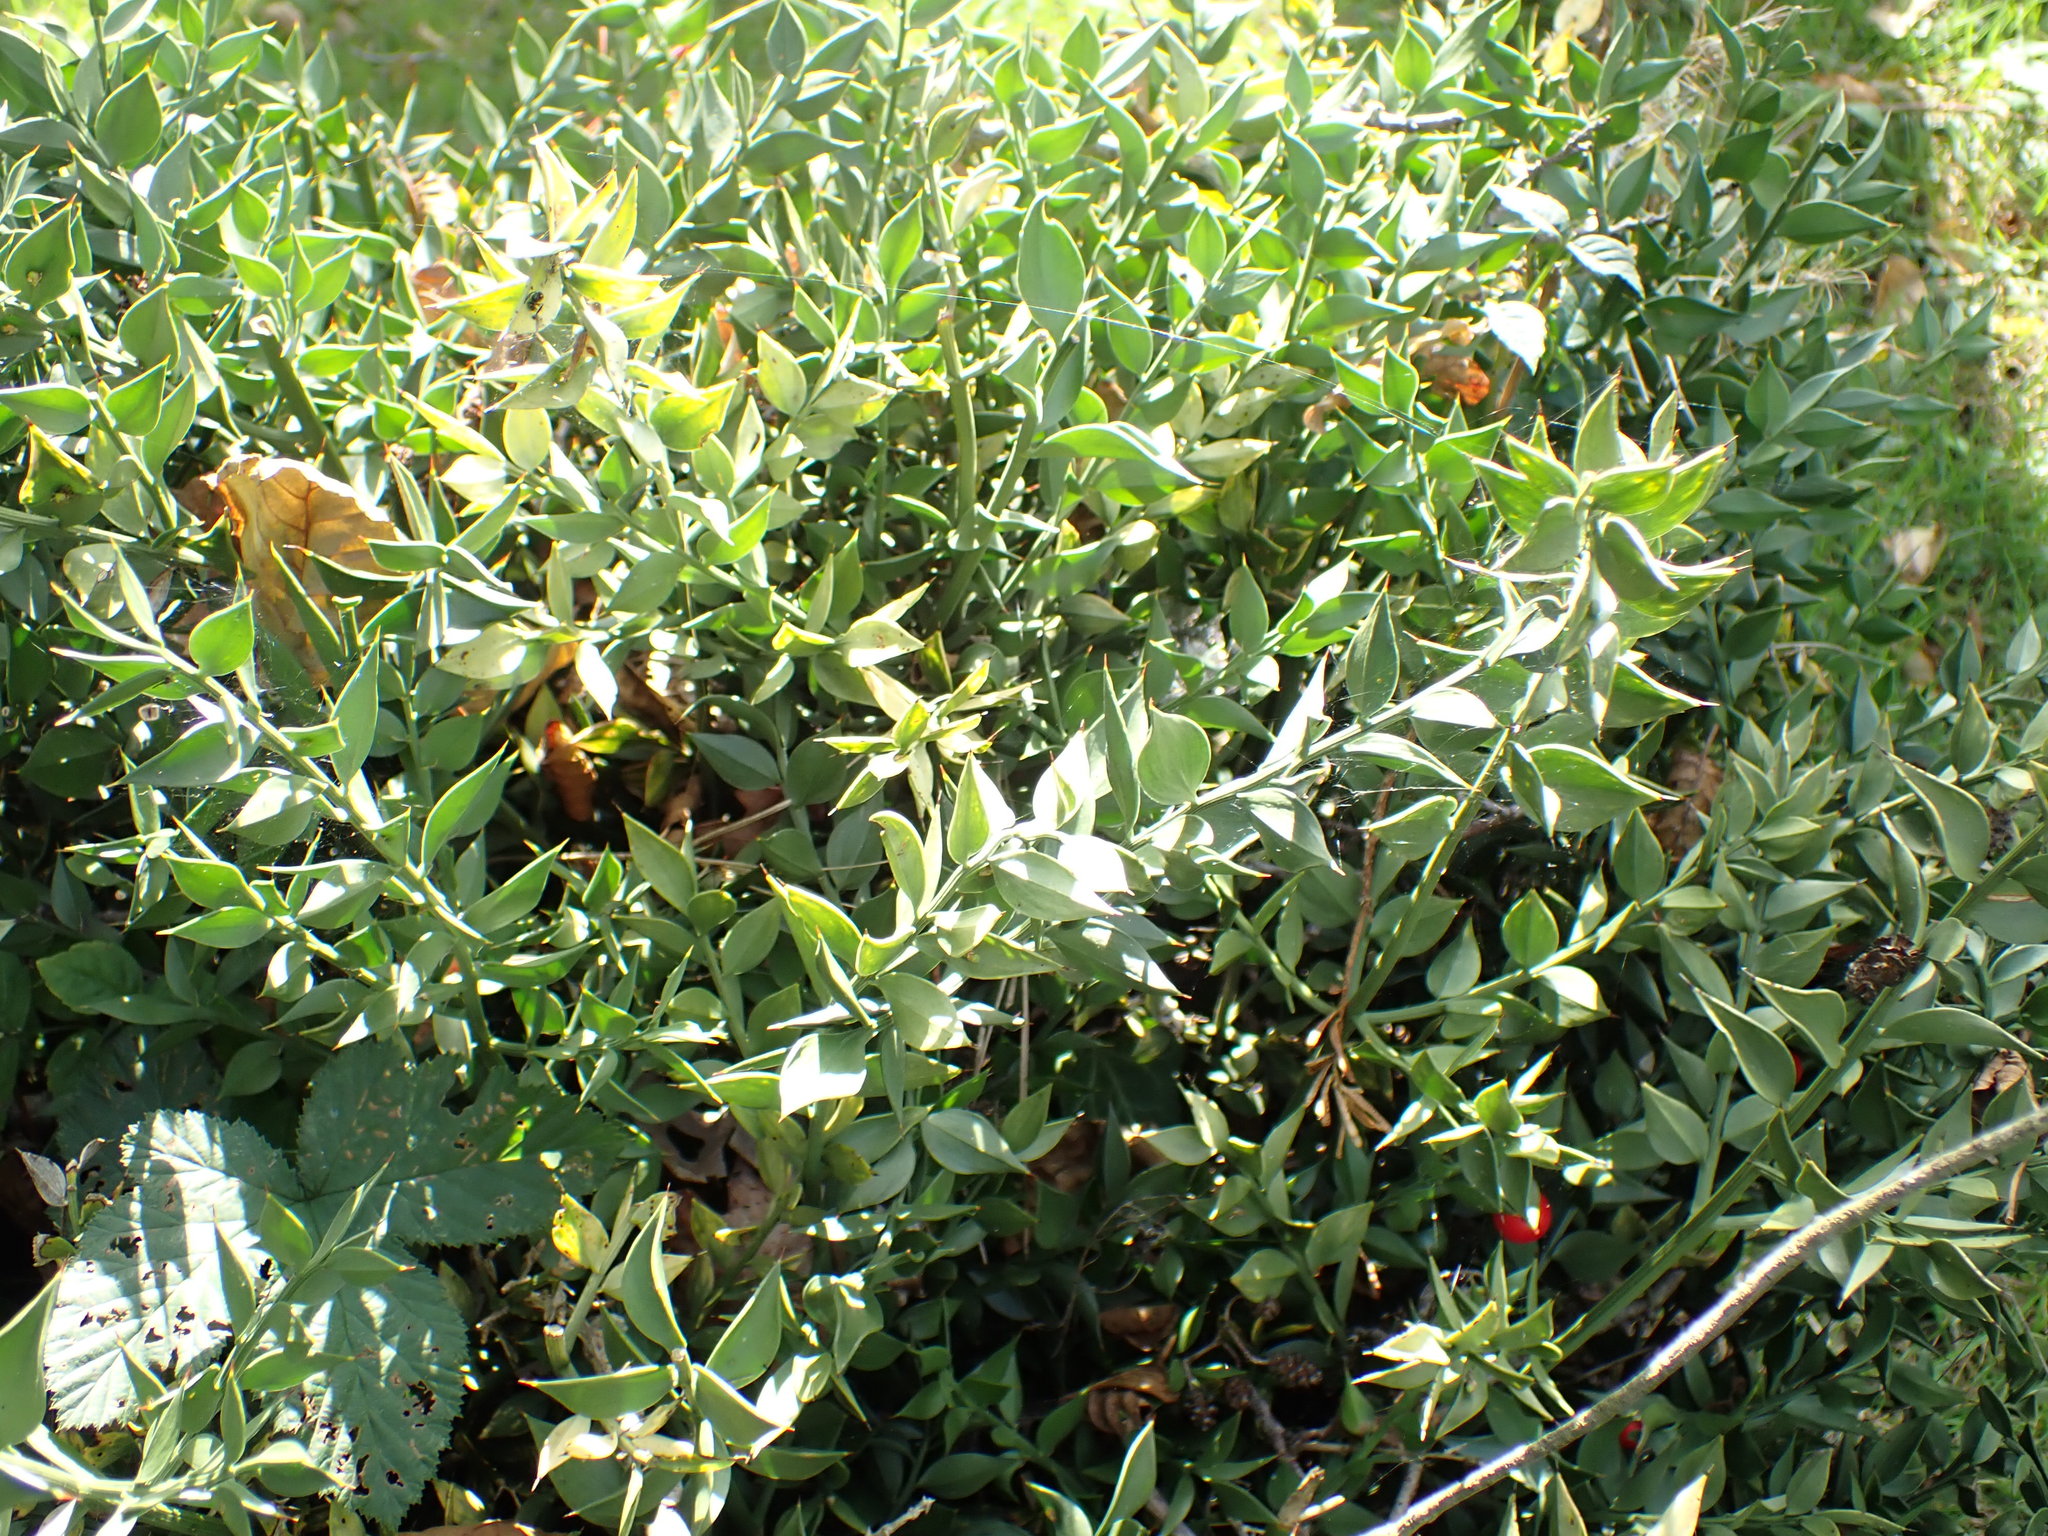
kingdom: Plantae
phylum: Tracheophyta
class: Liliopsida
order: Asparagales
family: Asparagaceae
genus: Ruscus
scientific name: Ruscus aculeatus
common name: Butcher's-broom
